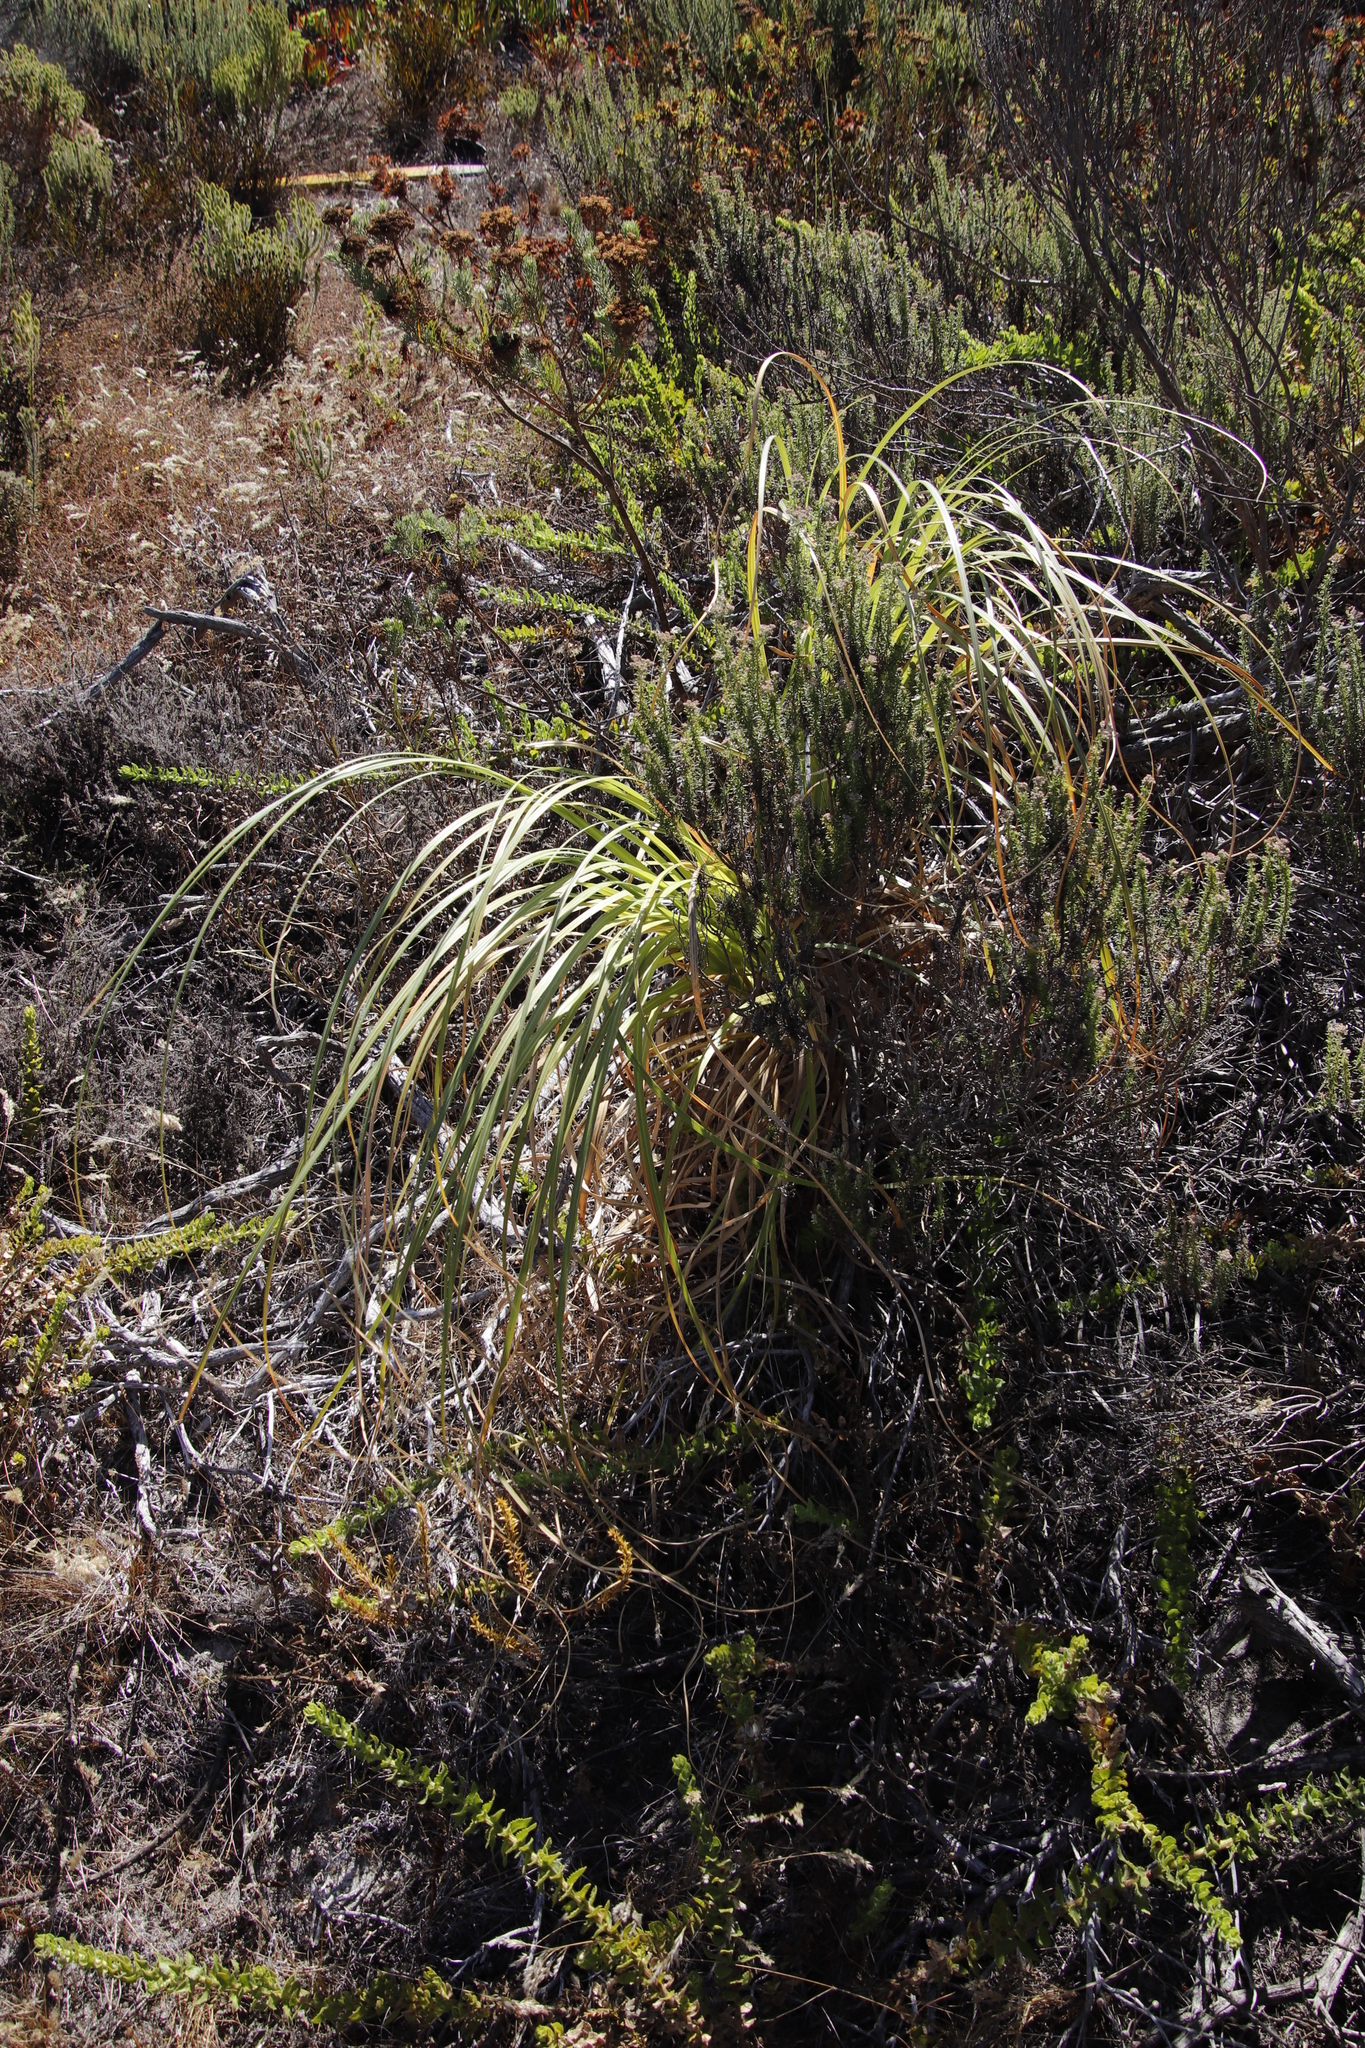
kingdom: Plantae
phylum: Tracheophyta
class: Liliopsida
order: Poales
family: Poaceae
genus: Cortaderia
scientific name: Cortaderia selloana
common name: Uruguayan pampas grass
